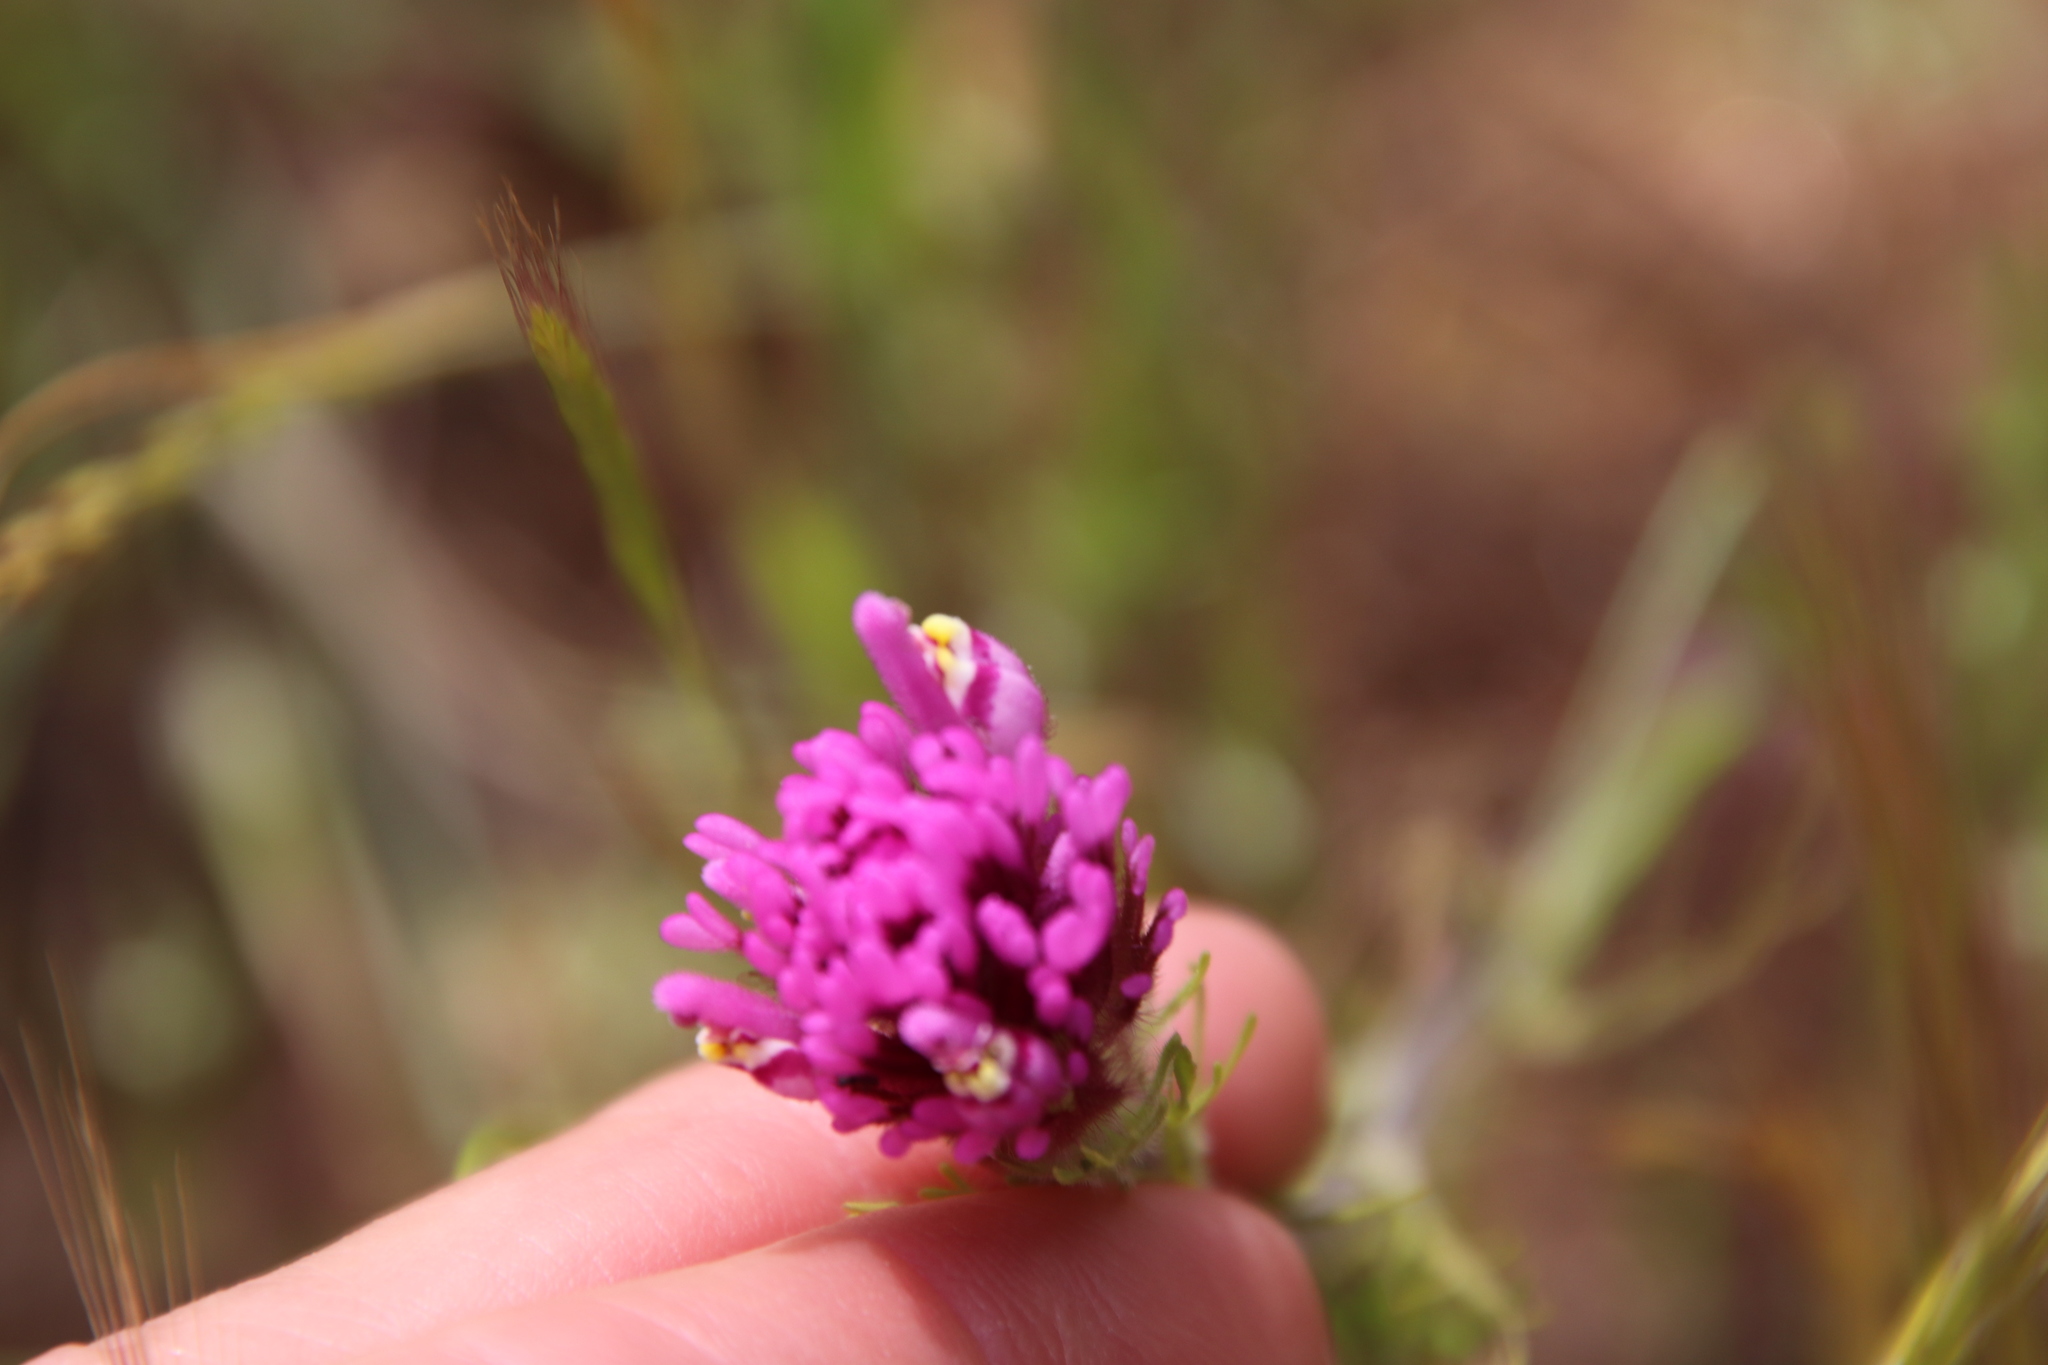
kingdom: Plantae
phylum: Tracheophyta
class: Magnoliopsida
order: Lamiales
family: Orobanchaceae
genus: Castilleja
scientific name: Castilleja exserta
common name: Purple owl-clover
